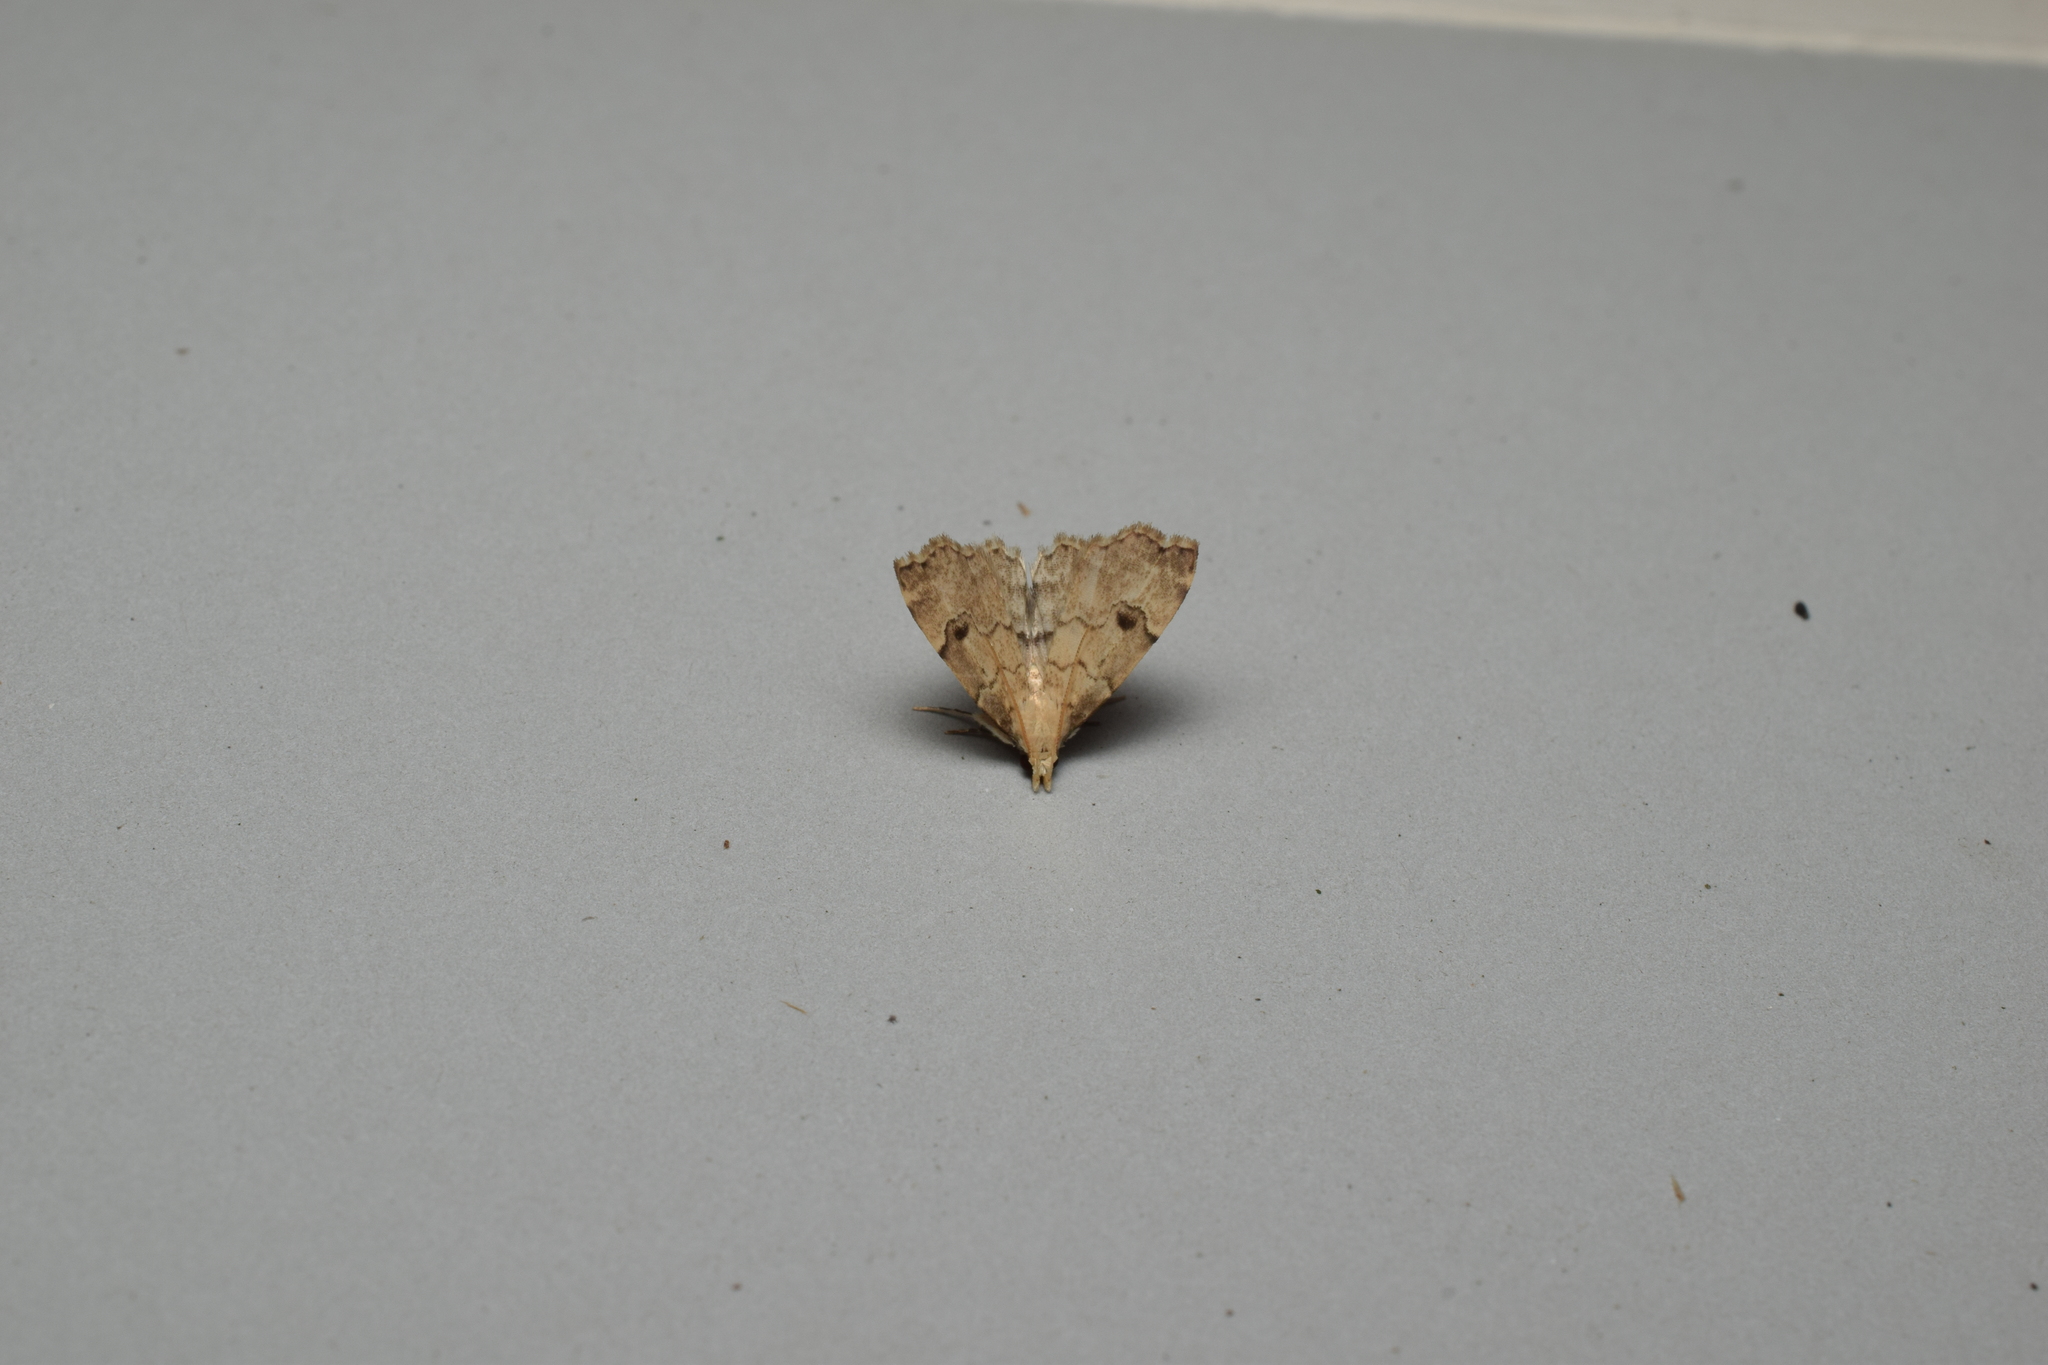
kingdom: Animalia
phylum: Arthropoda
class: Insecta
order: Lepidoptera
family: Erebidae
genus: Micreremites
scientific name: Micreremites pyraloides
